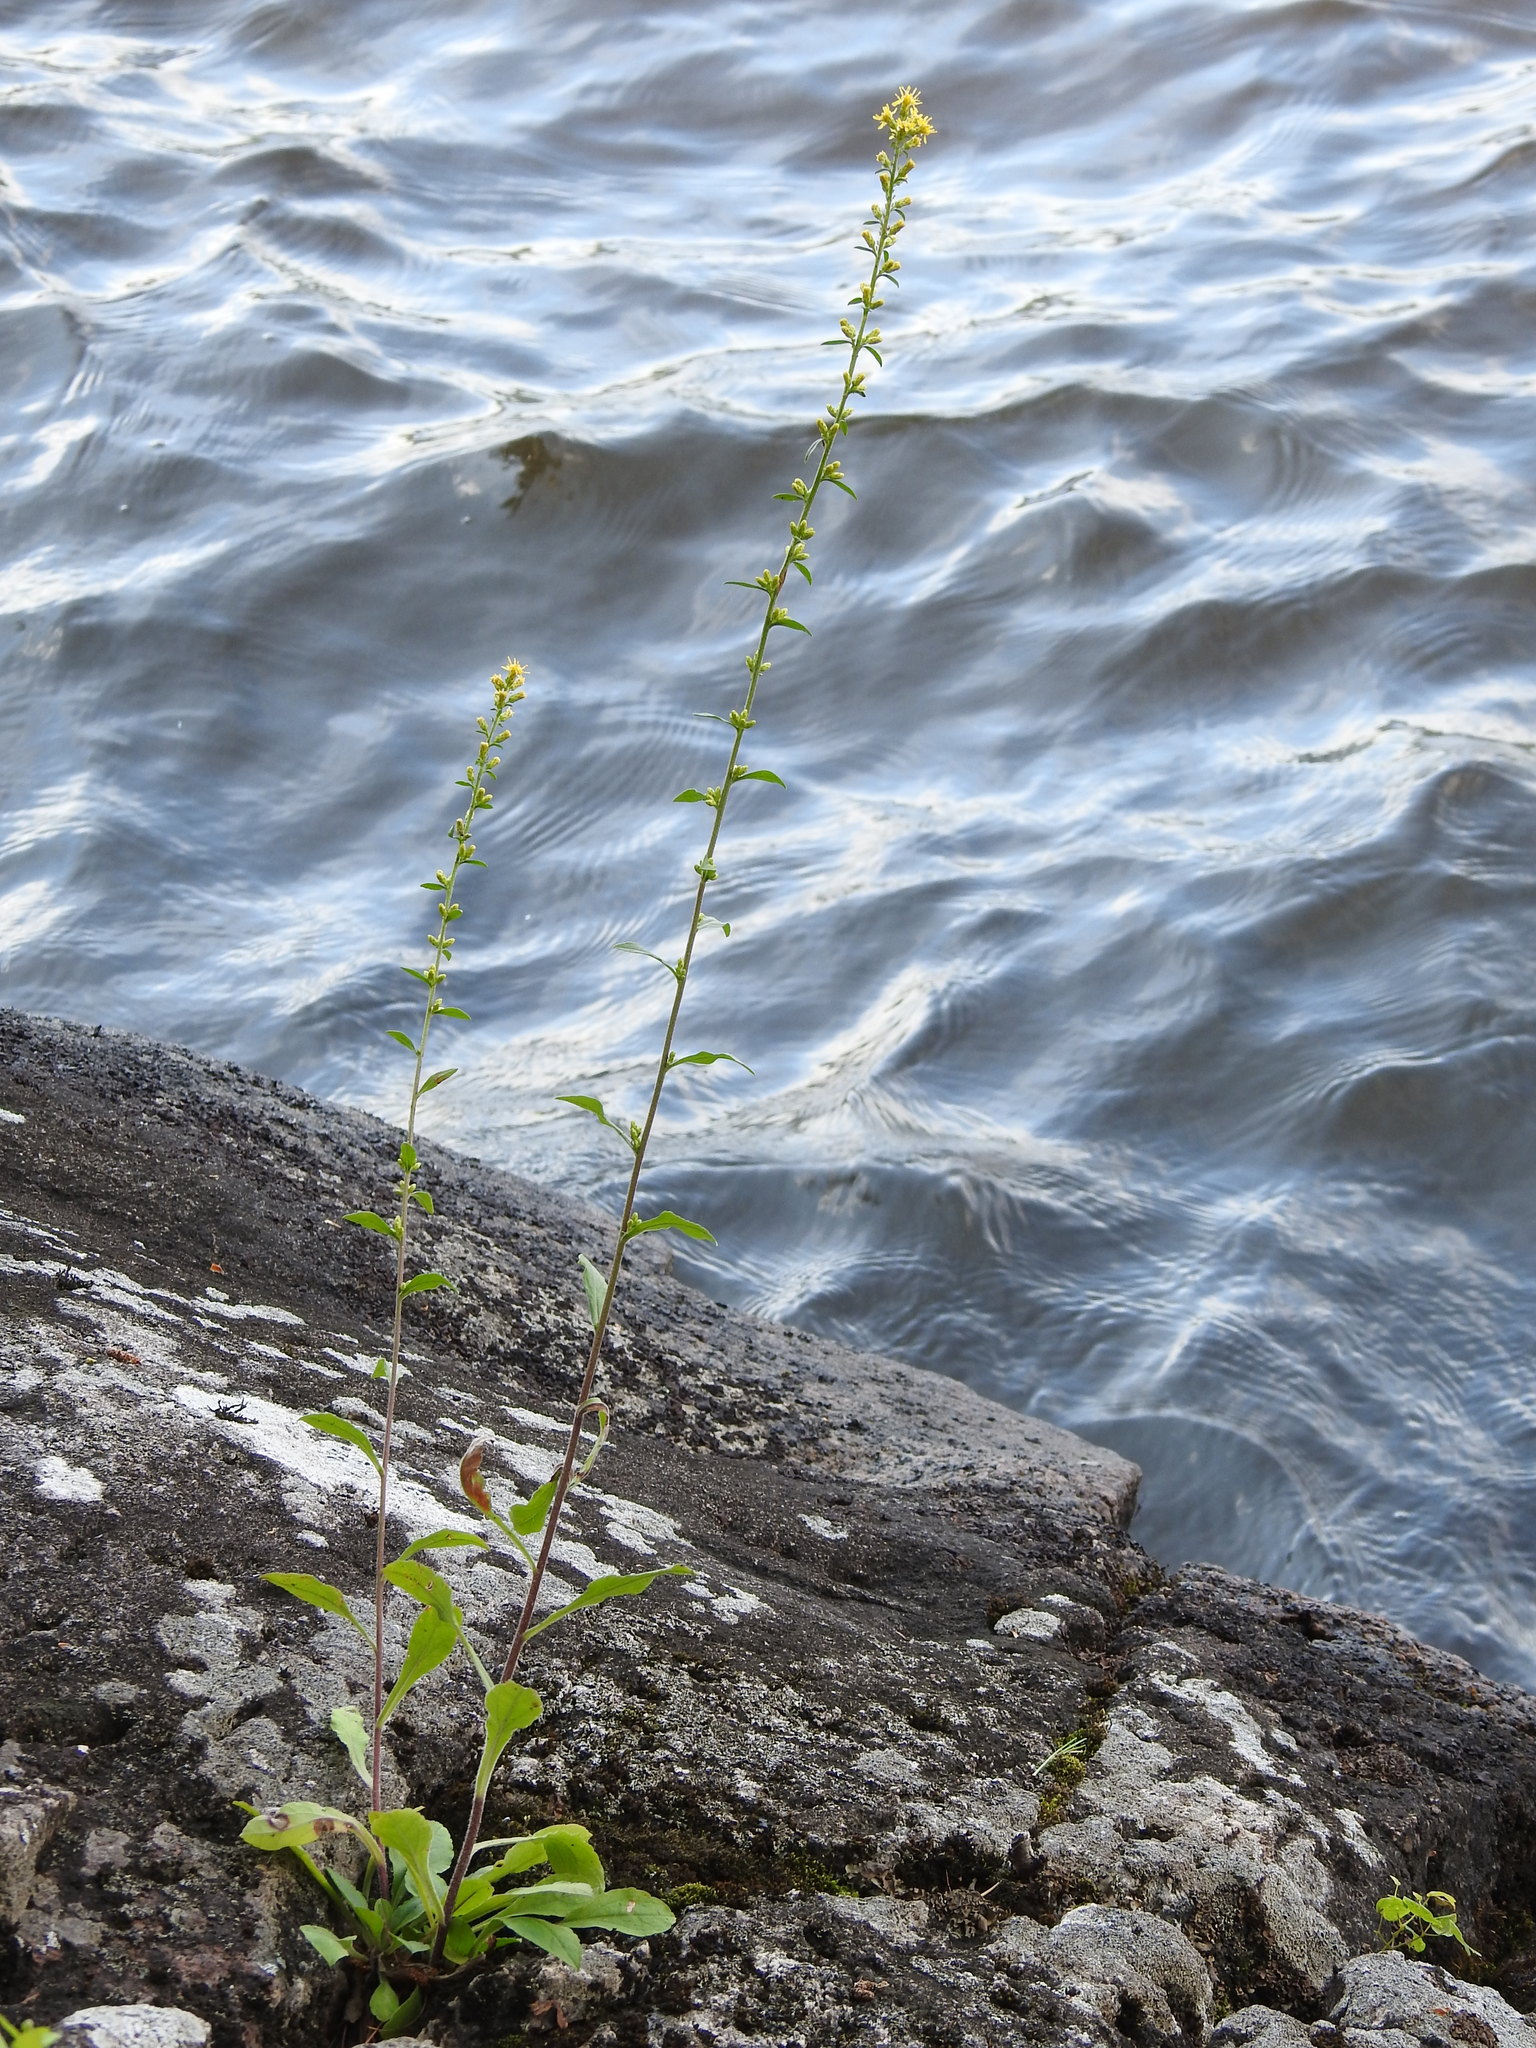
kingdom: Plantae
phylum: Tracheophyta
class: Magnoliopsida
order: Asterales
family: Asteraceae
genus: Solidago
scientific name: Solidago hispida
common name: Hairy goldenrod
